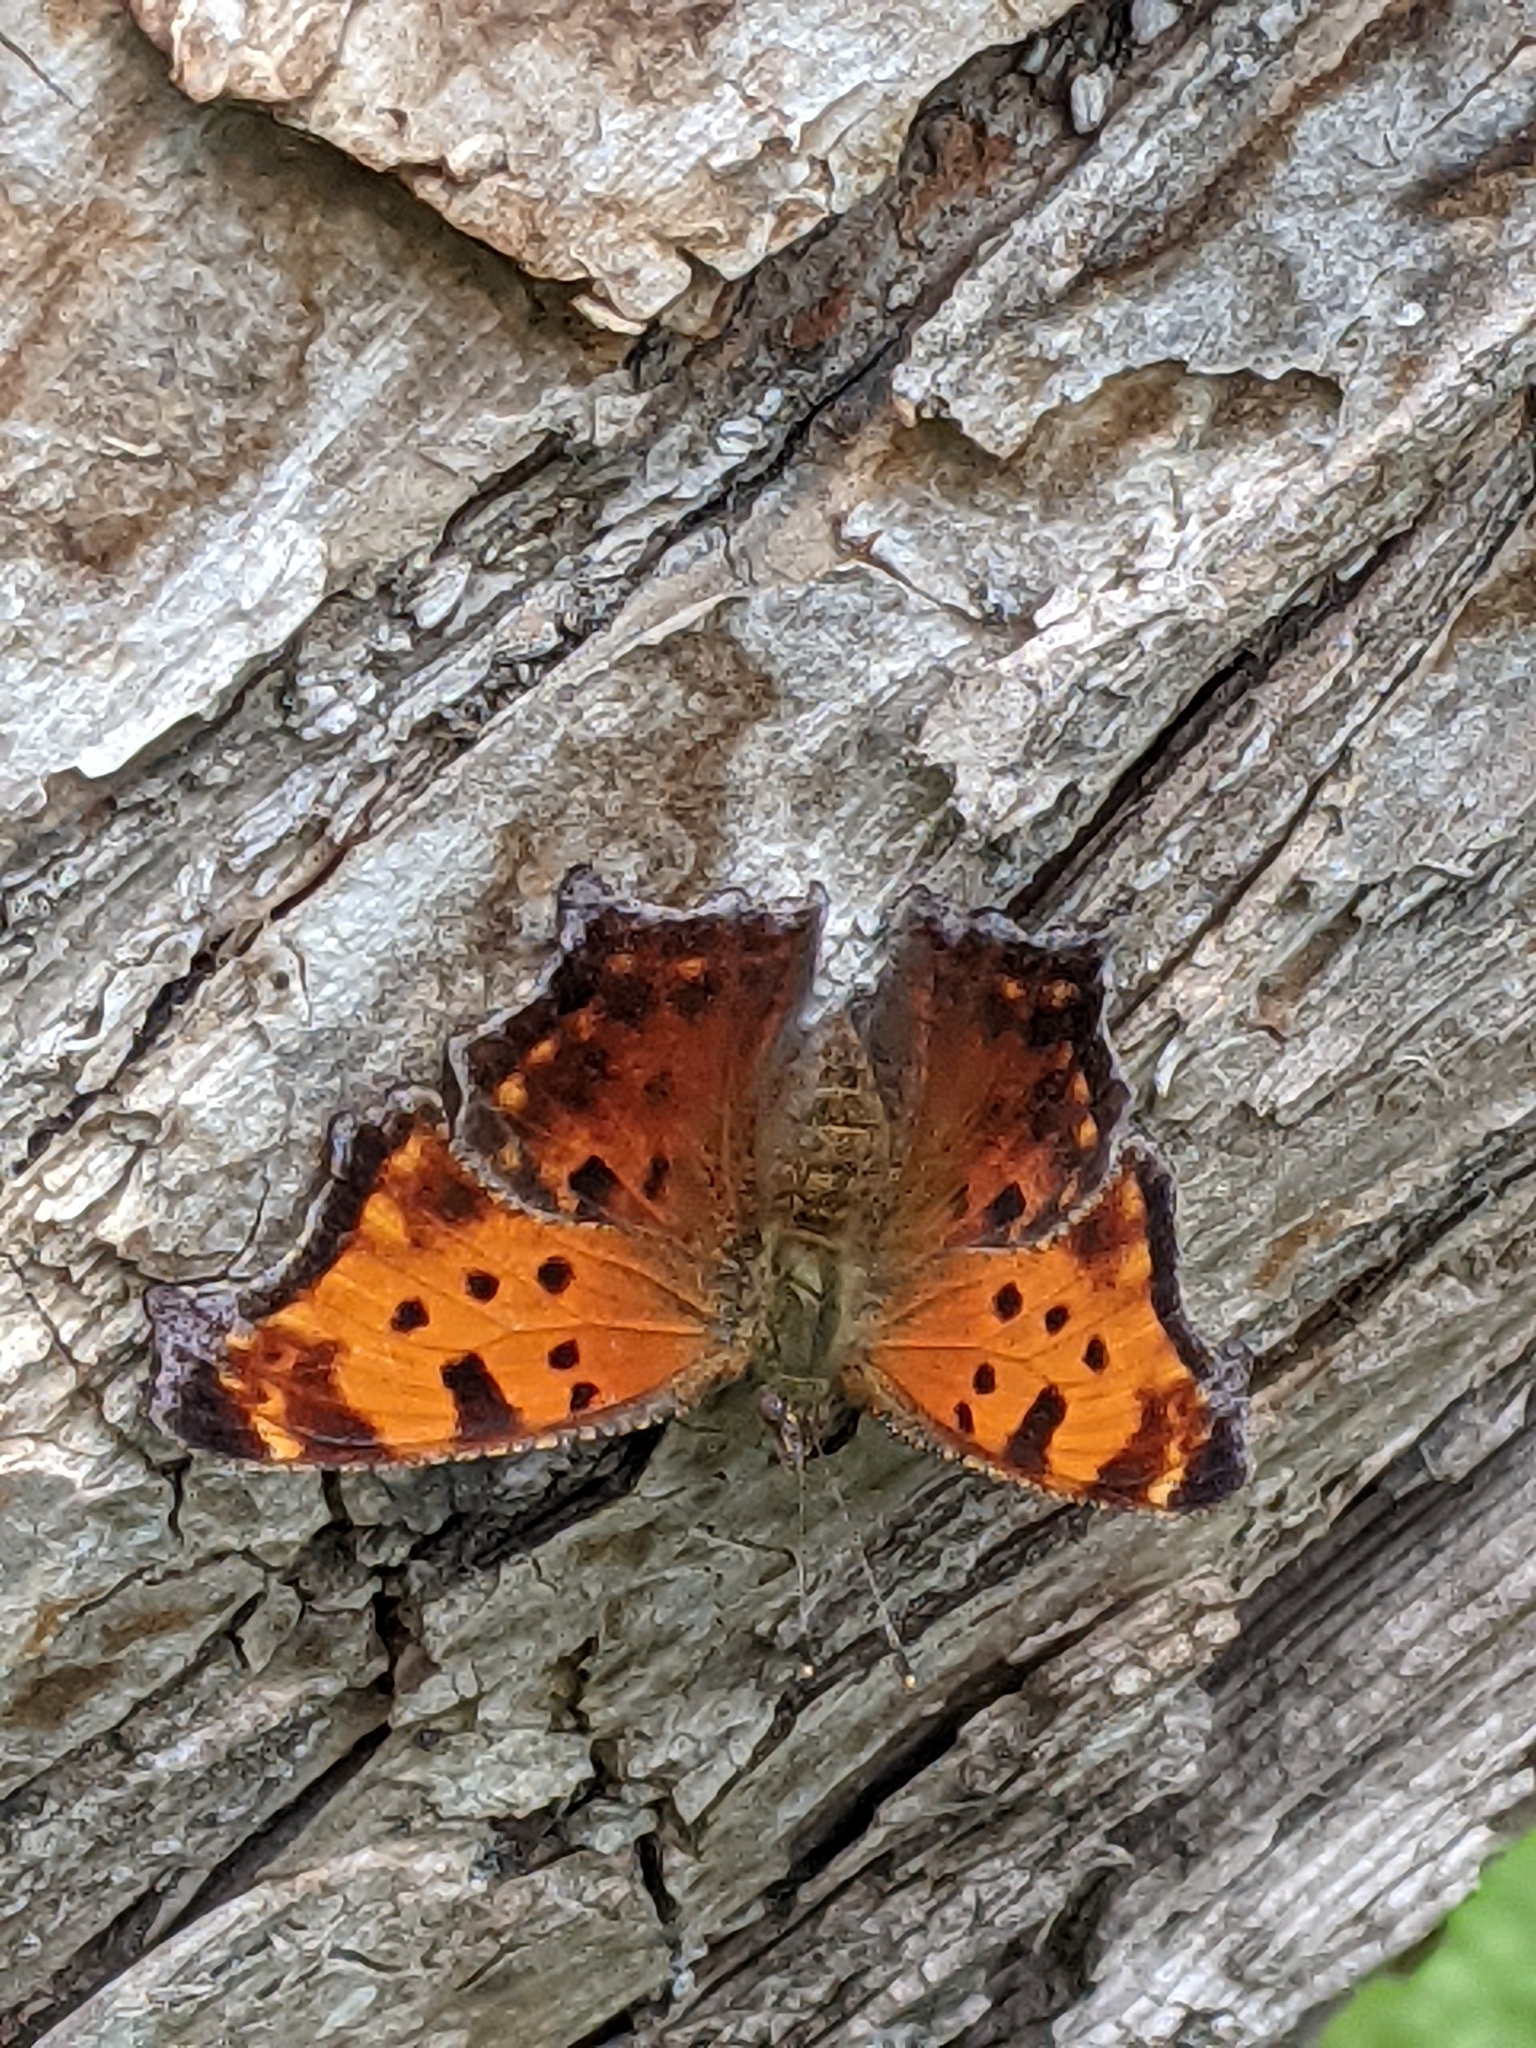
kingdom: Animalia
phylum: Arthropoda
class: Insecta
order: Lepidoptera
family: Nymphalidae
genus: Polygonia
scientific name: Polygonia comma
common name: Eastern comma
